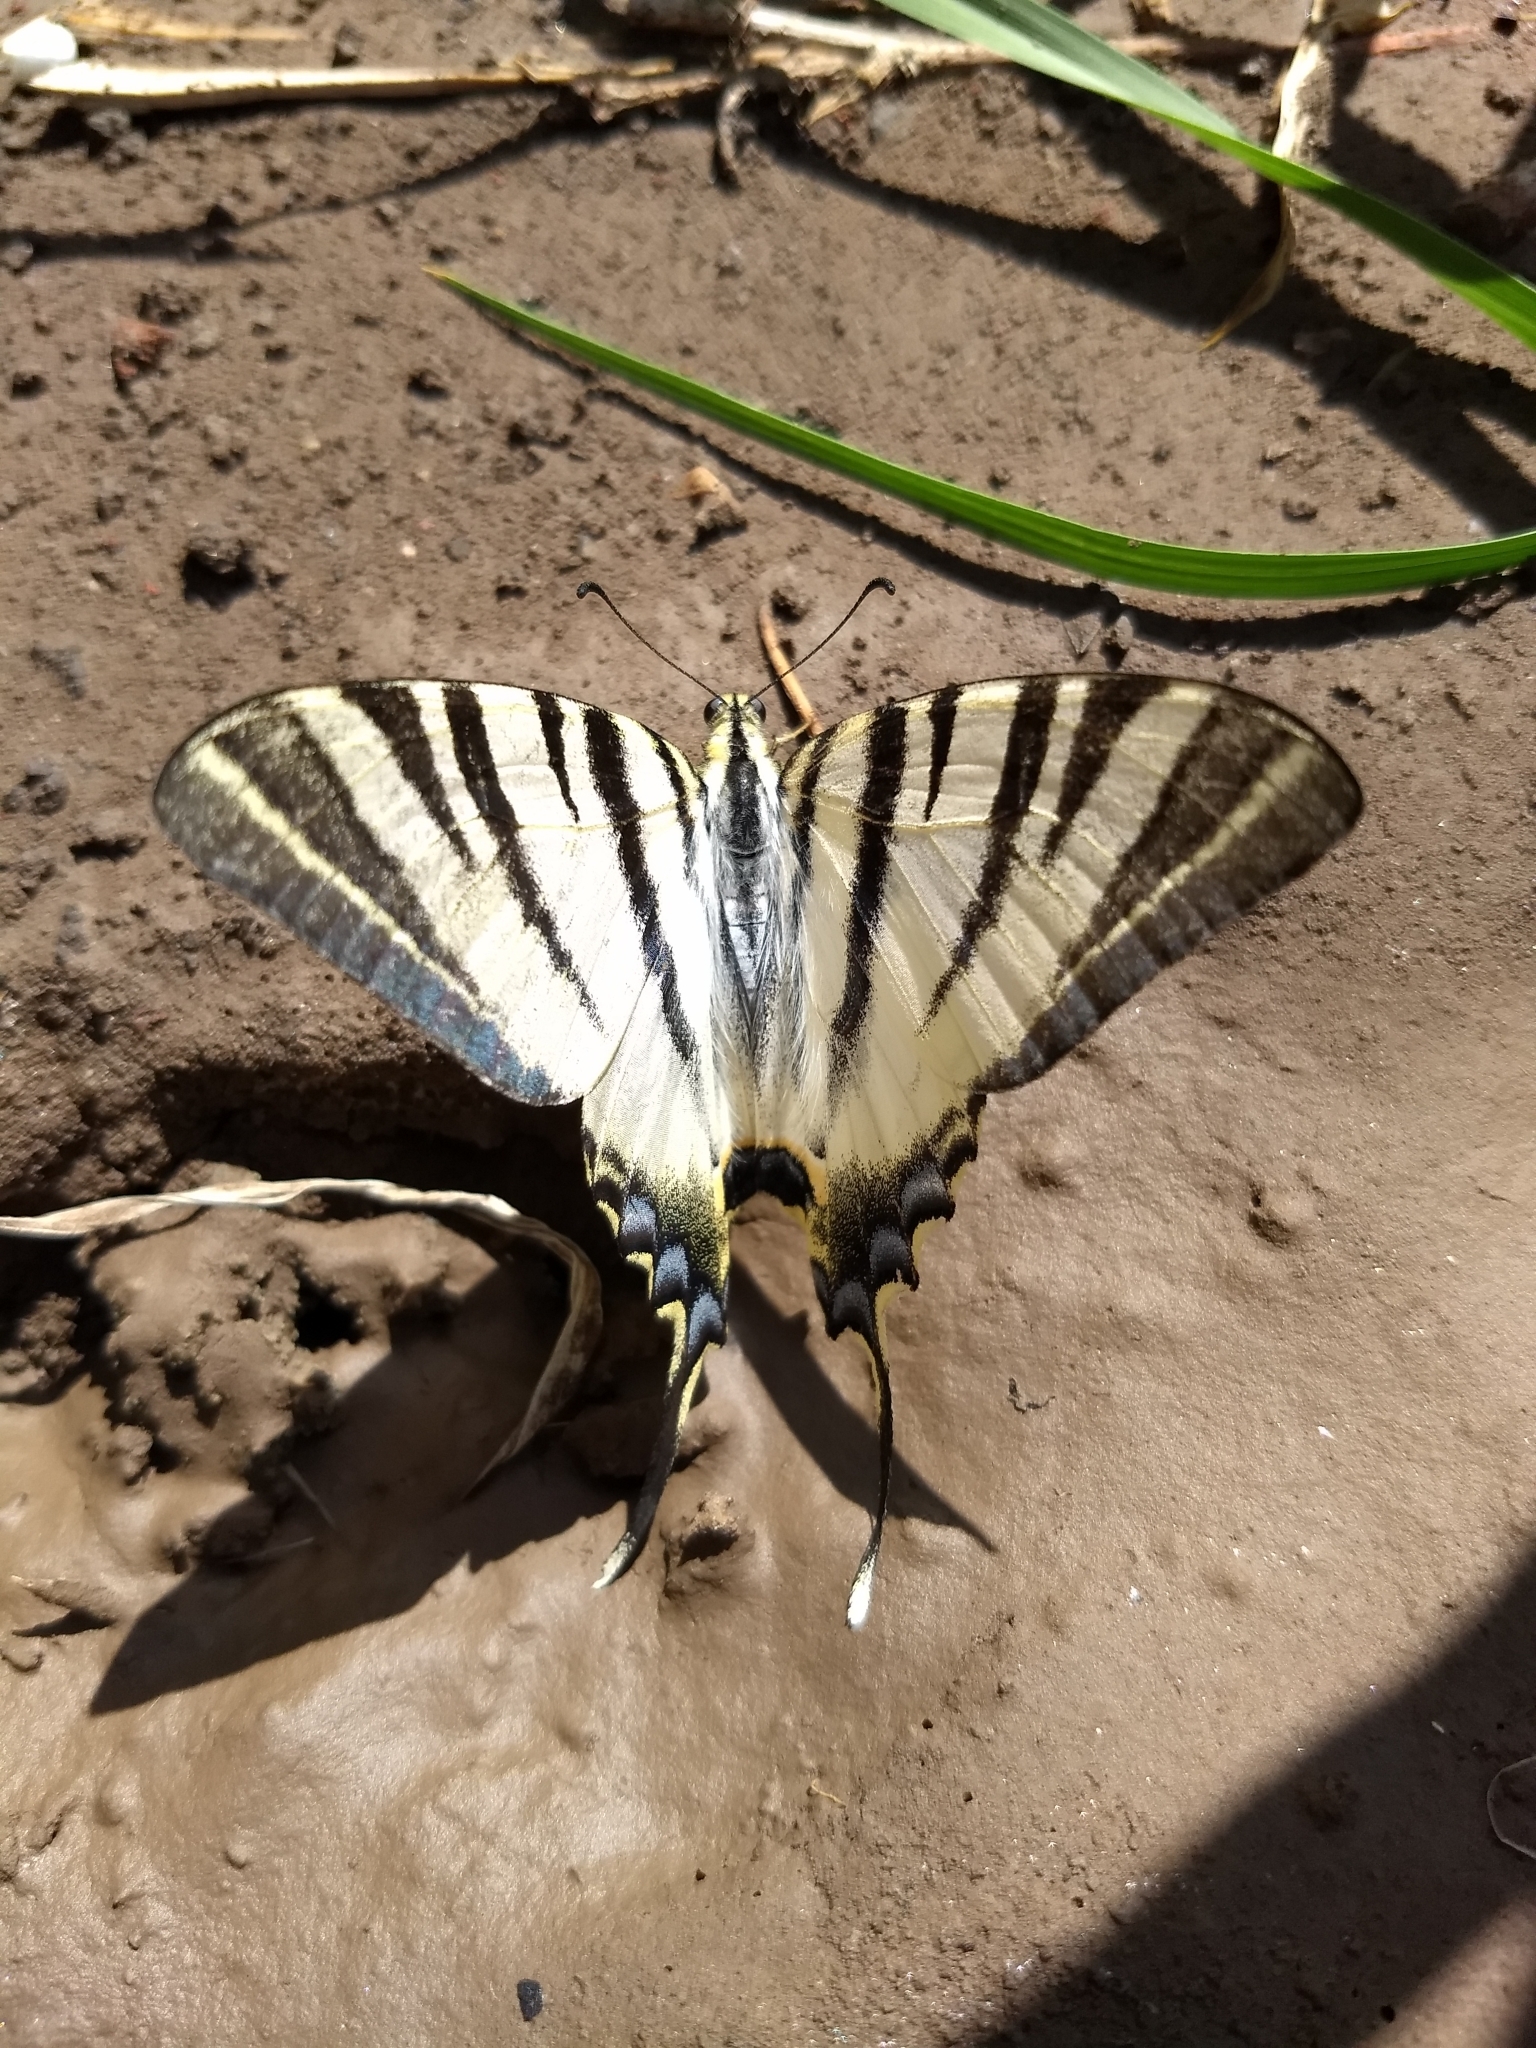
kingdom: Animalia
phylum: Arthropoda
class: Insecta
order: Lepidoptera
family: Papilionidae
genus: Iphiclides
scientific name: Iphiclides podalirius
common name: Scarce swallowtail
